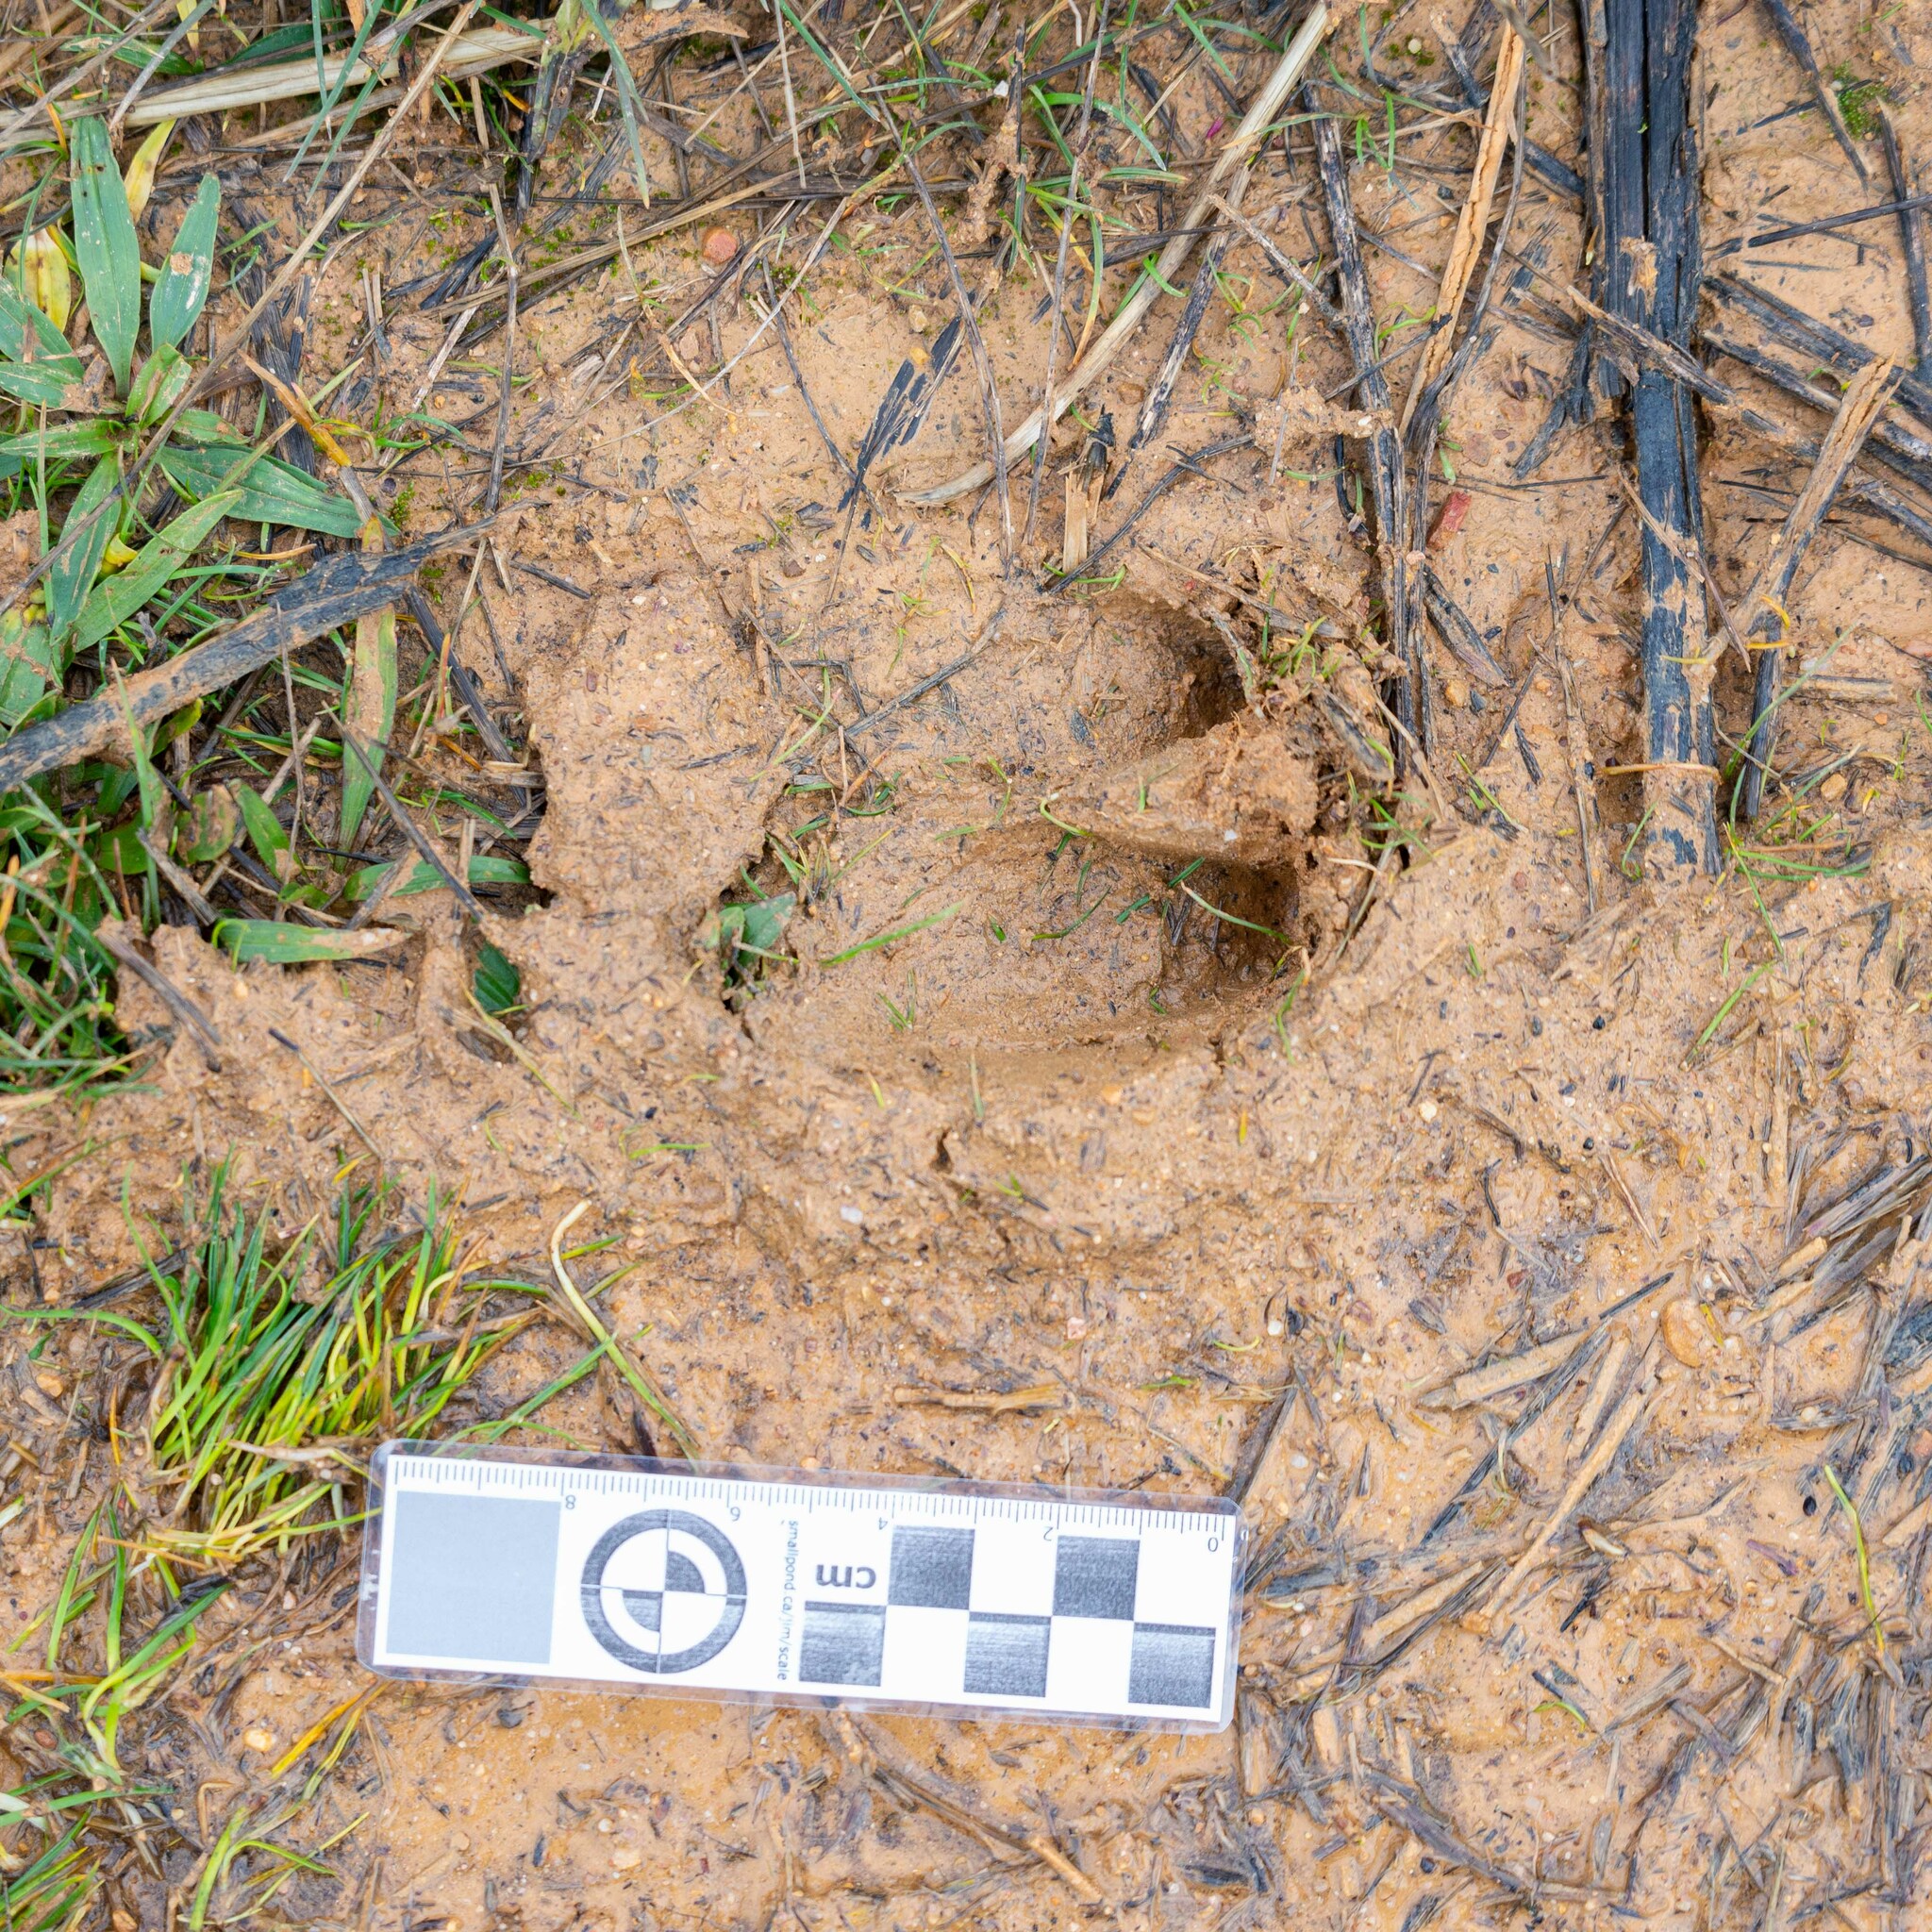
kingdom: Animalia
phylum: Chordata
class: Mammalia
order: Artiodactyla
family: Suidae
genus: Sus
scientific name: Sus scrofa
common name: Wild boar
